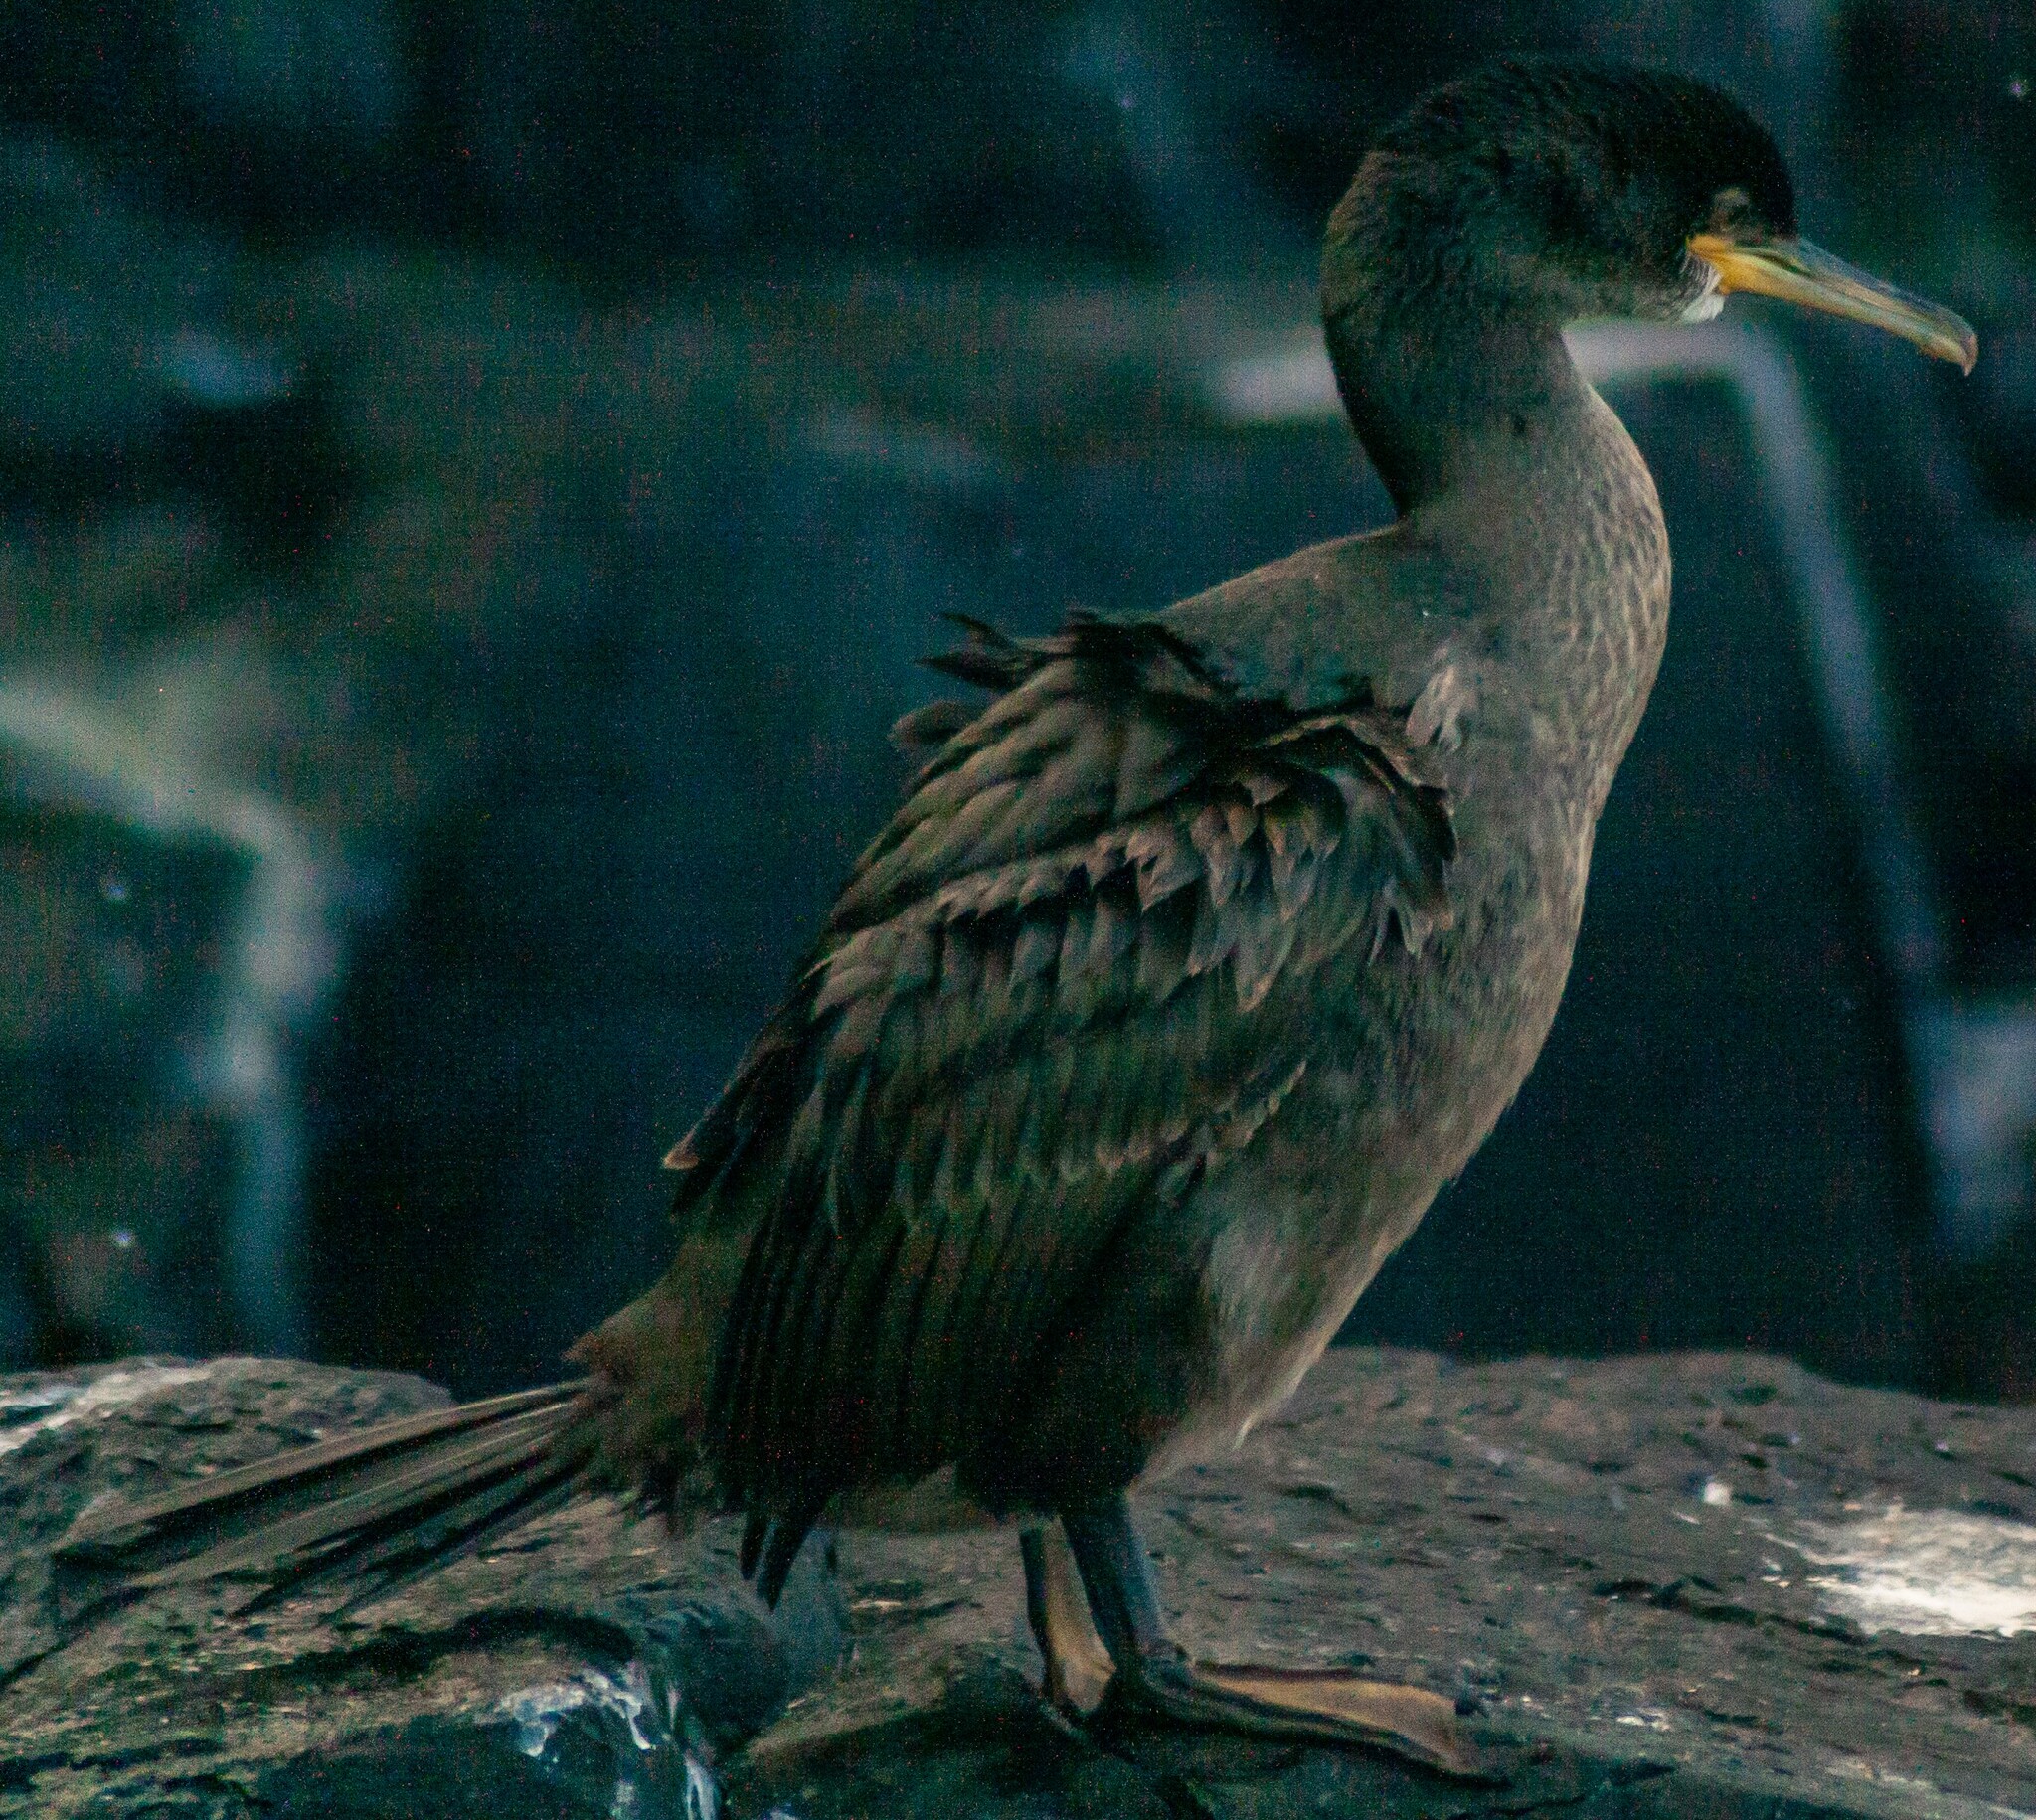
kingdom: Animalia
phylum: Chordata
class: Aves
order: Suliformes
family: Phalacrocoracidae
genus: Phalacrocorax
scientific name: Phalacrocorax aristotelis
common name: European shag
